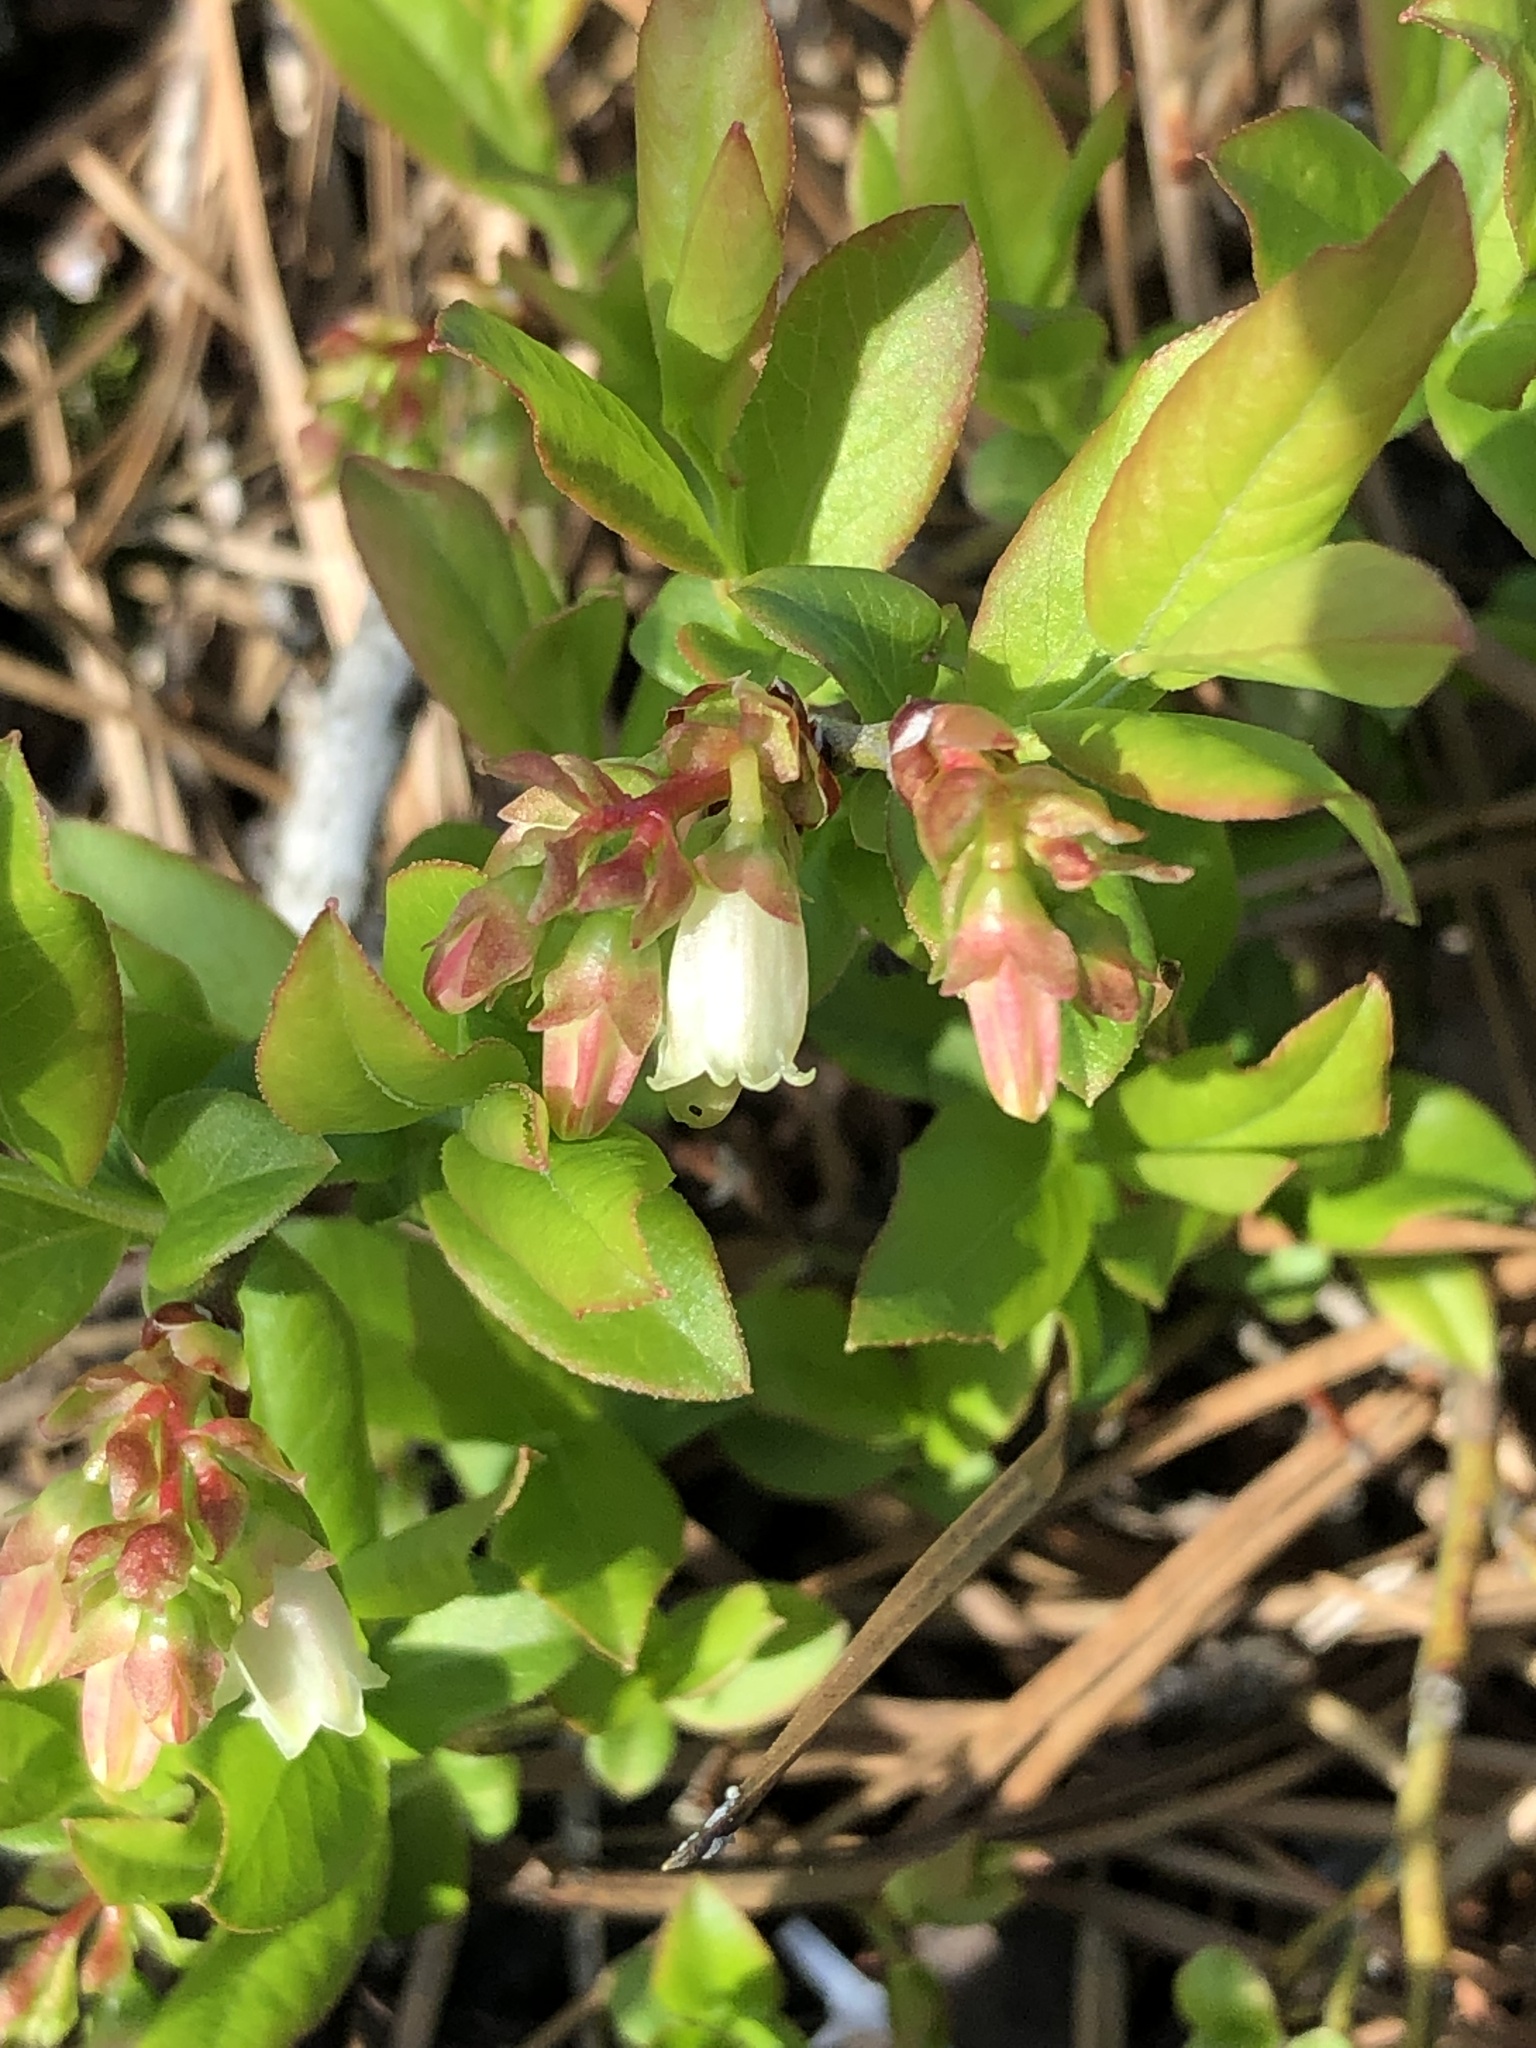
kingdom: Plantae
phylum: Tracheophyta
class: Magnoliopsida
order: Ericales
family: Ericaceae
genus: Vaccinium
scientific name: Vaccinium angustifolium
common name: Early lowbush blueberry
